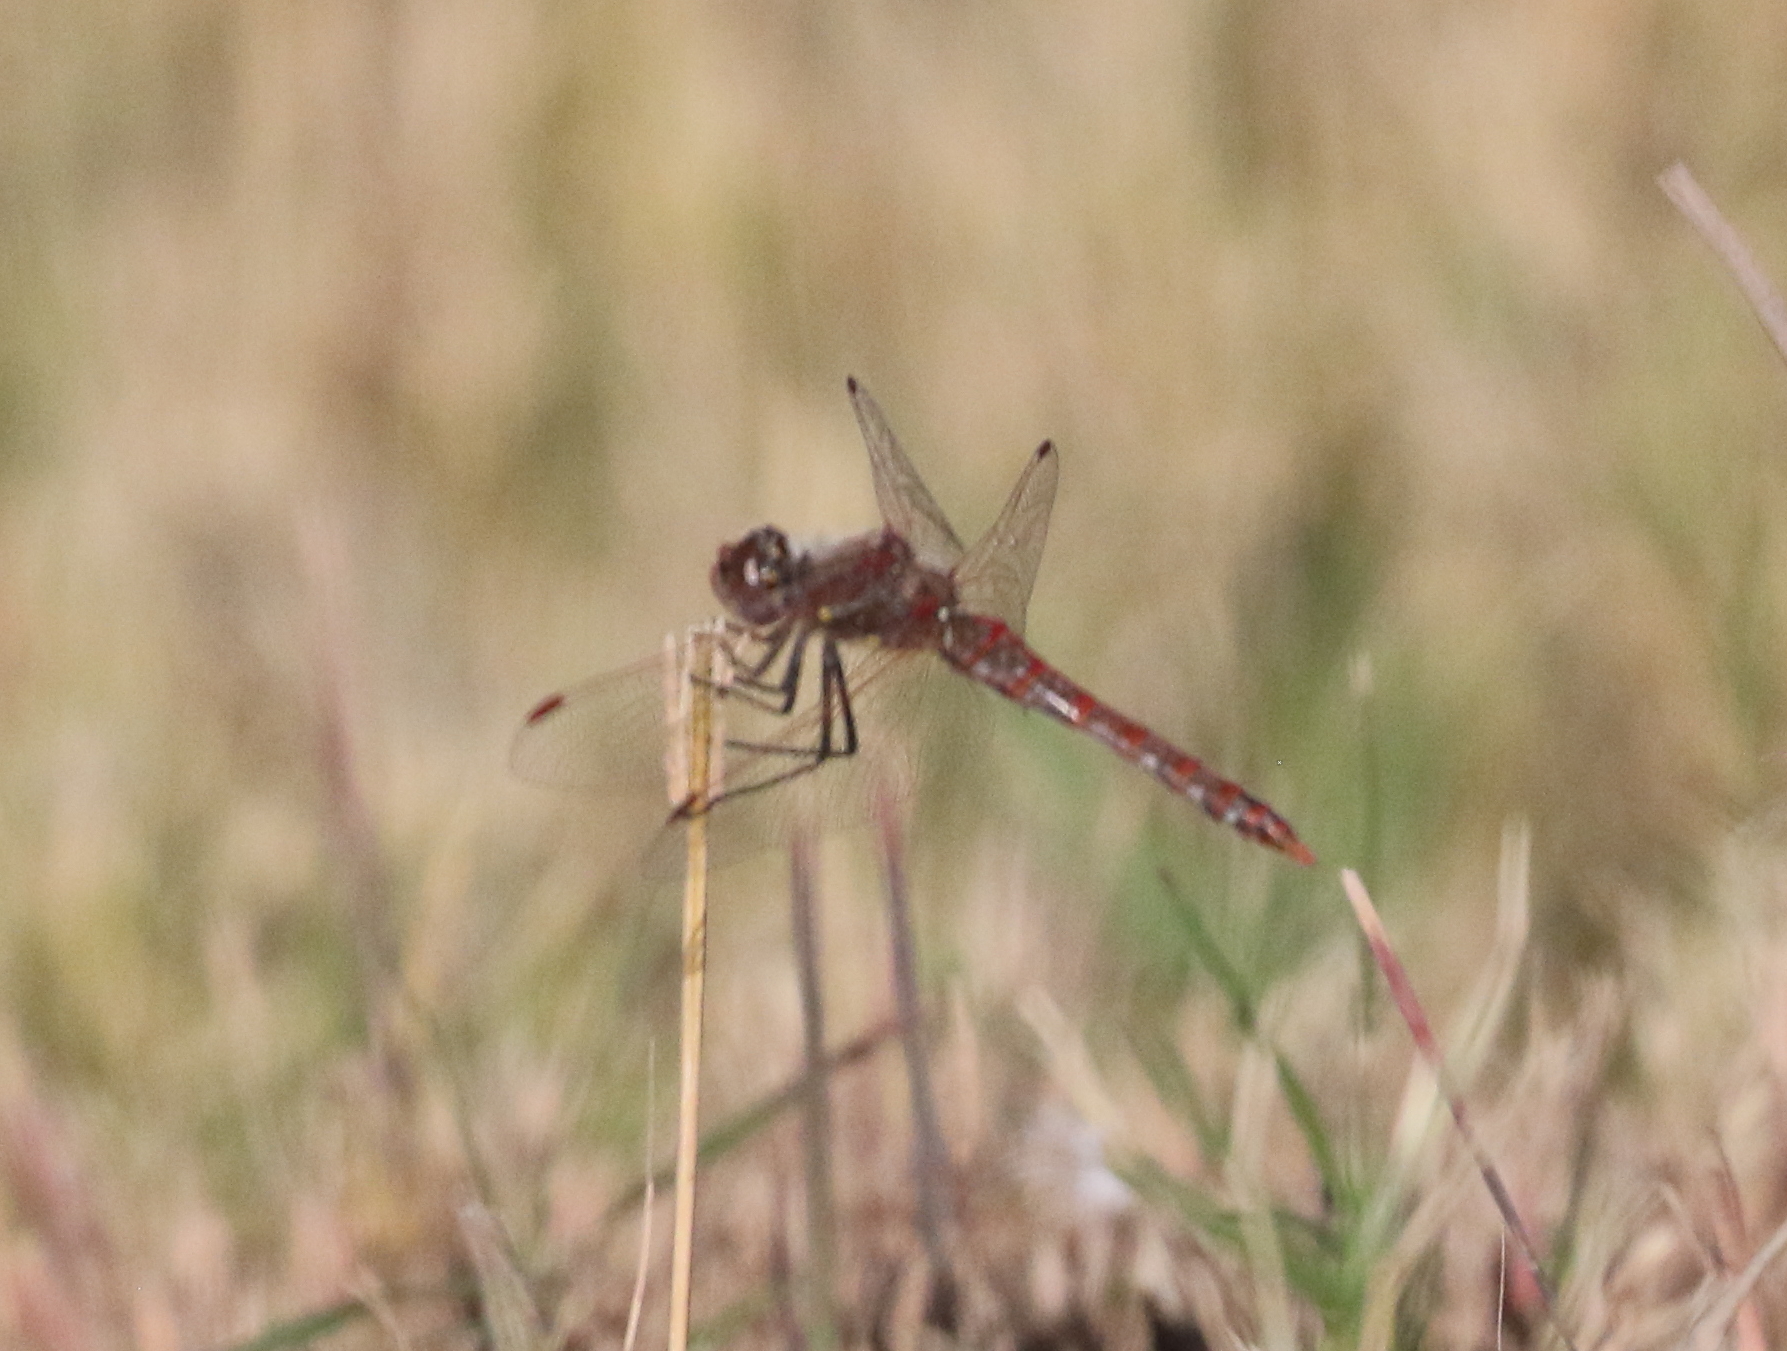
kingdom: Animalia
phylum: Arthropoda
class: Insecta
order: Odonata
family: Libellulidae
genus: Sympetrum
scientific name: Sympetrum corruptum
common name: Variegated meadowhawk
